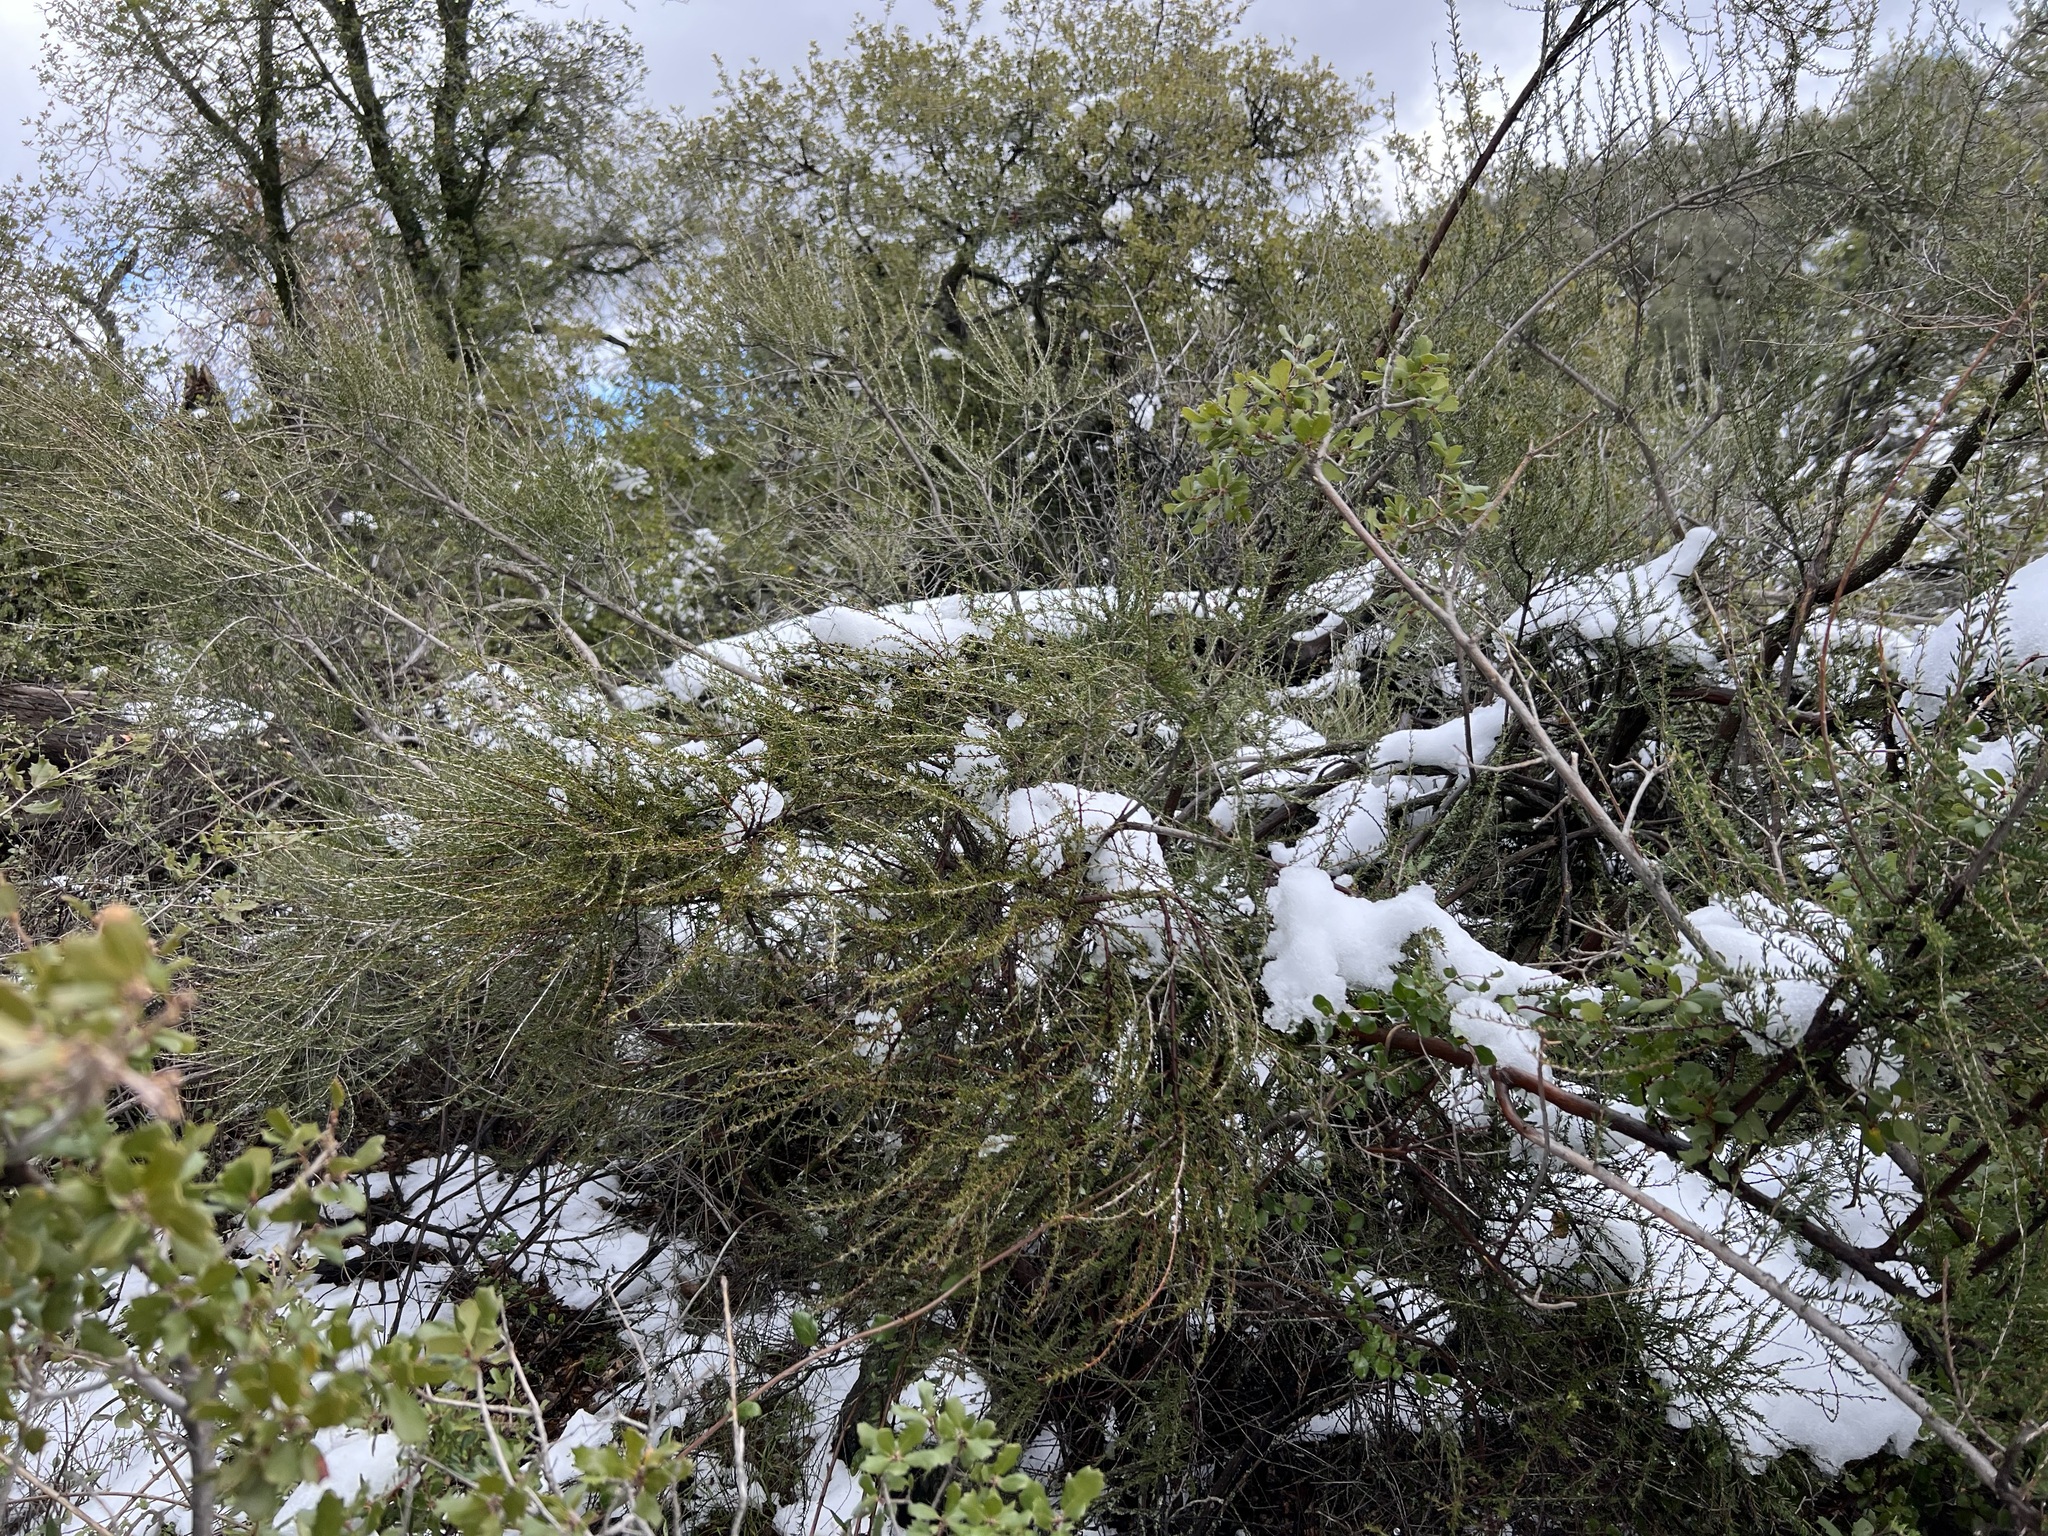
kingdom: Plantae
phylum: Tracheophyta
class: Magnoliopsida
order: Rosales
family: Rosaceae
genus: Adenostoma
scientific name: Adenostoma fasciculatum
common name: Chamise
